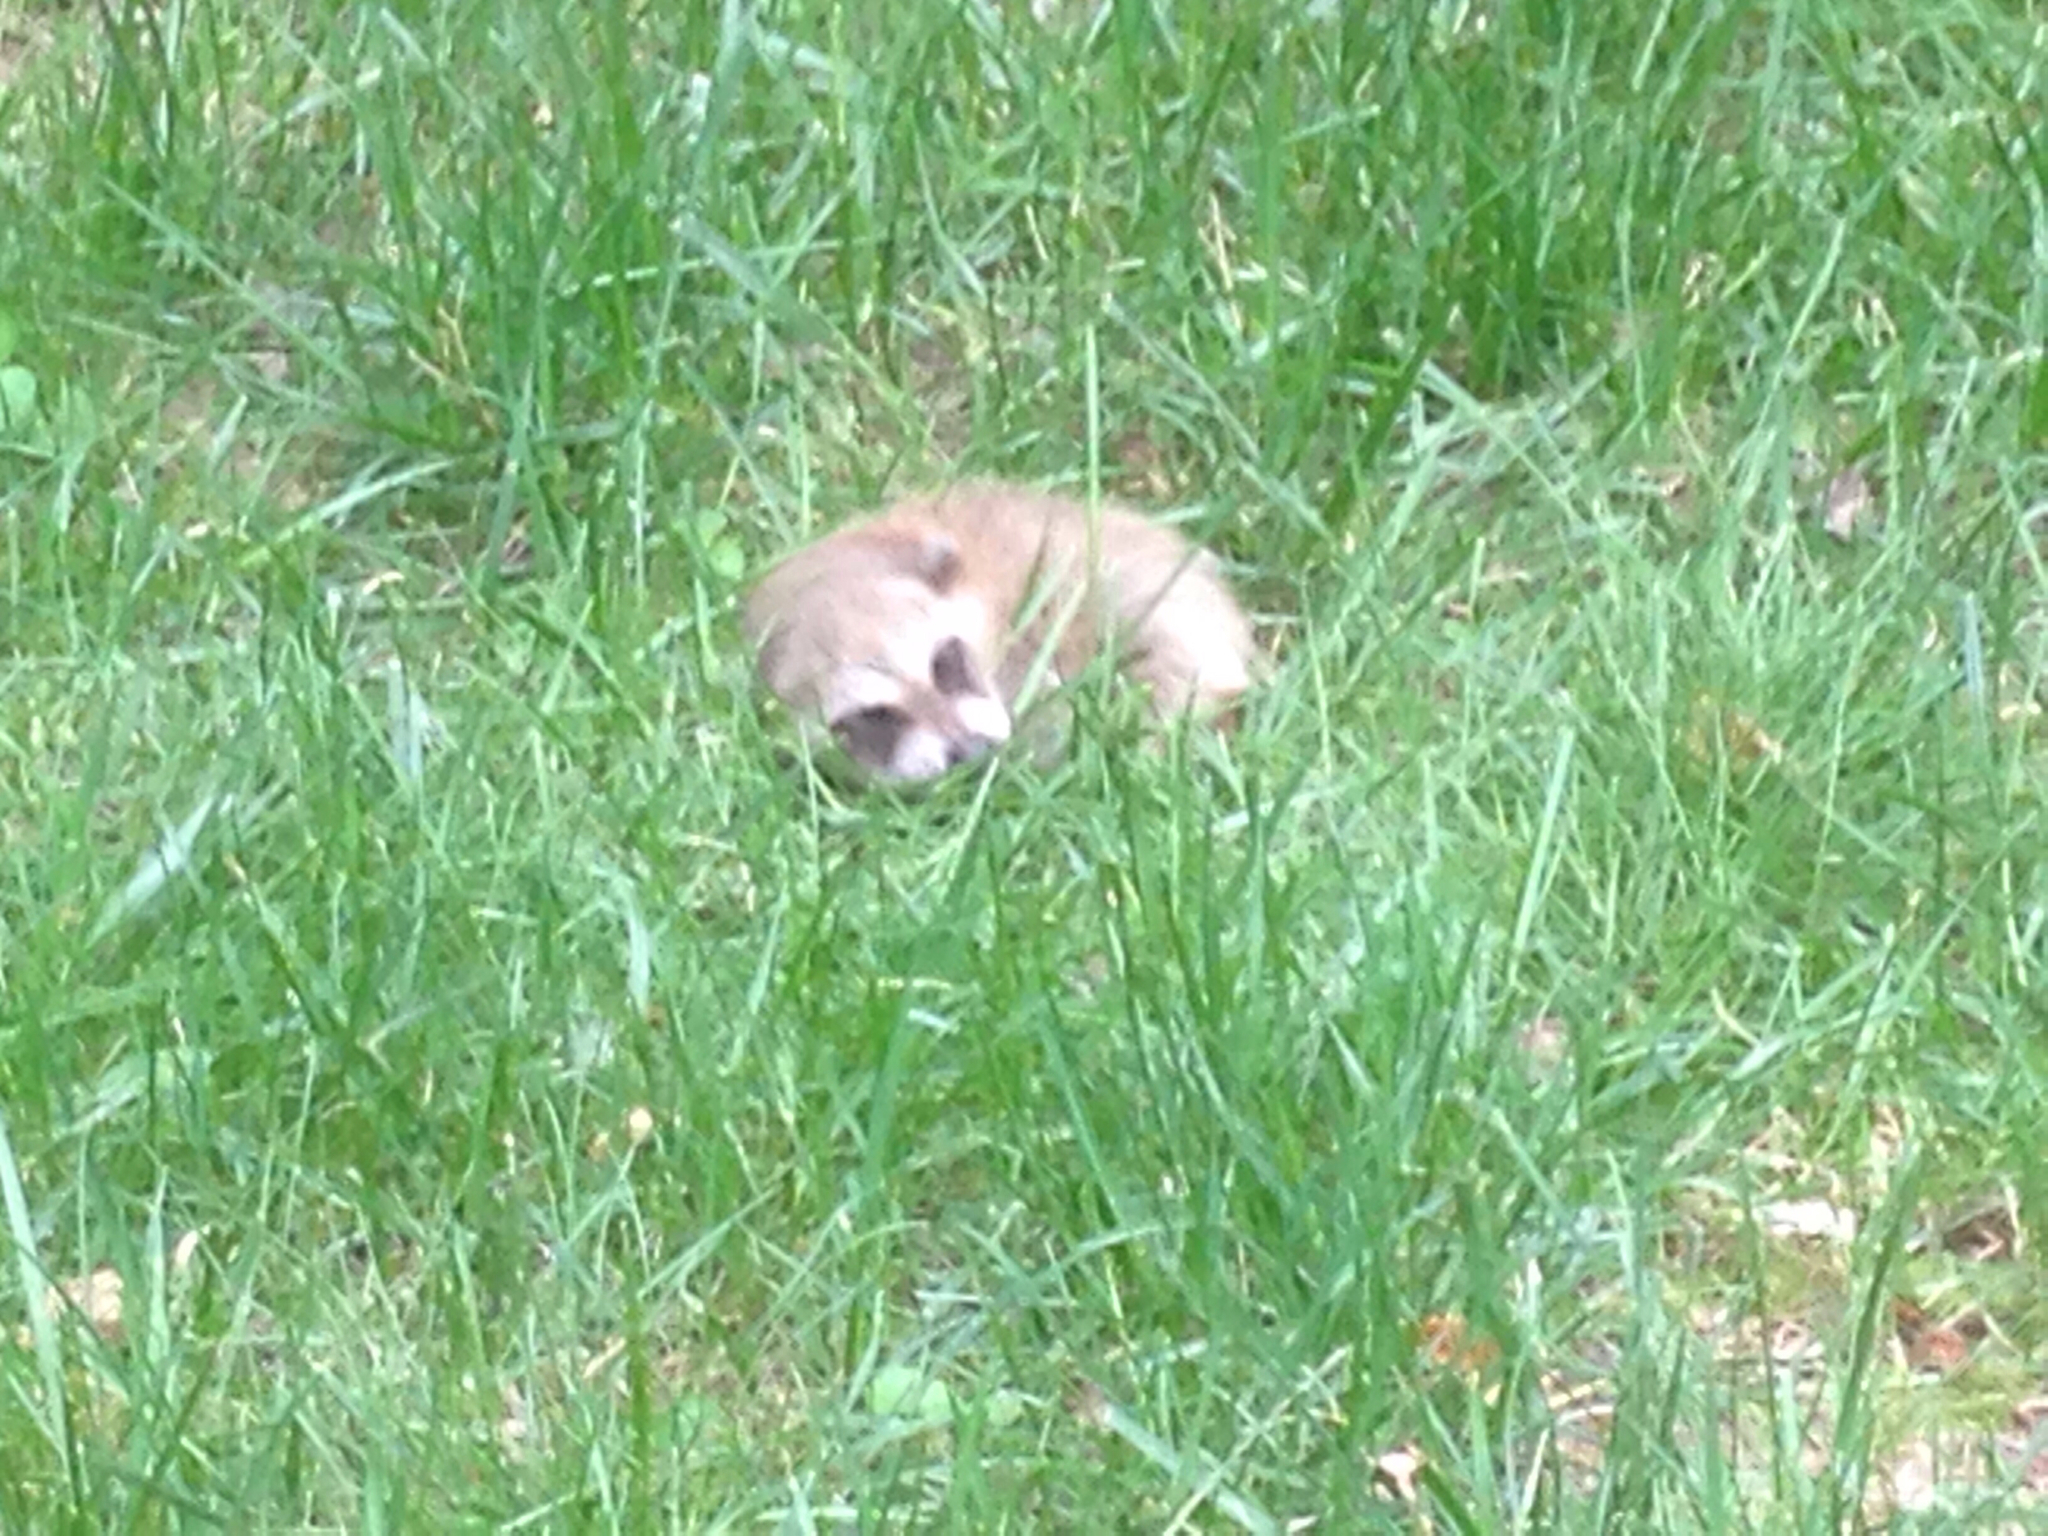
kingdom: Animalia
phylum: Chordata
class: Mammalia
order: Carnivora
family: Procyonidae
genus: Procyon
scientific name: Procyon lotor
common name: Raccoon
